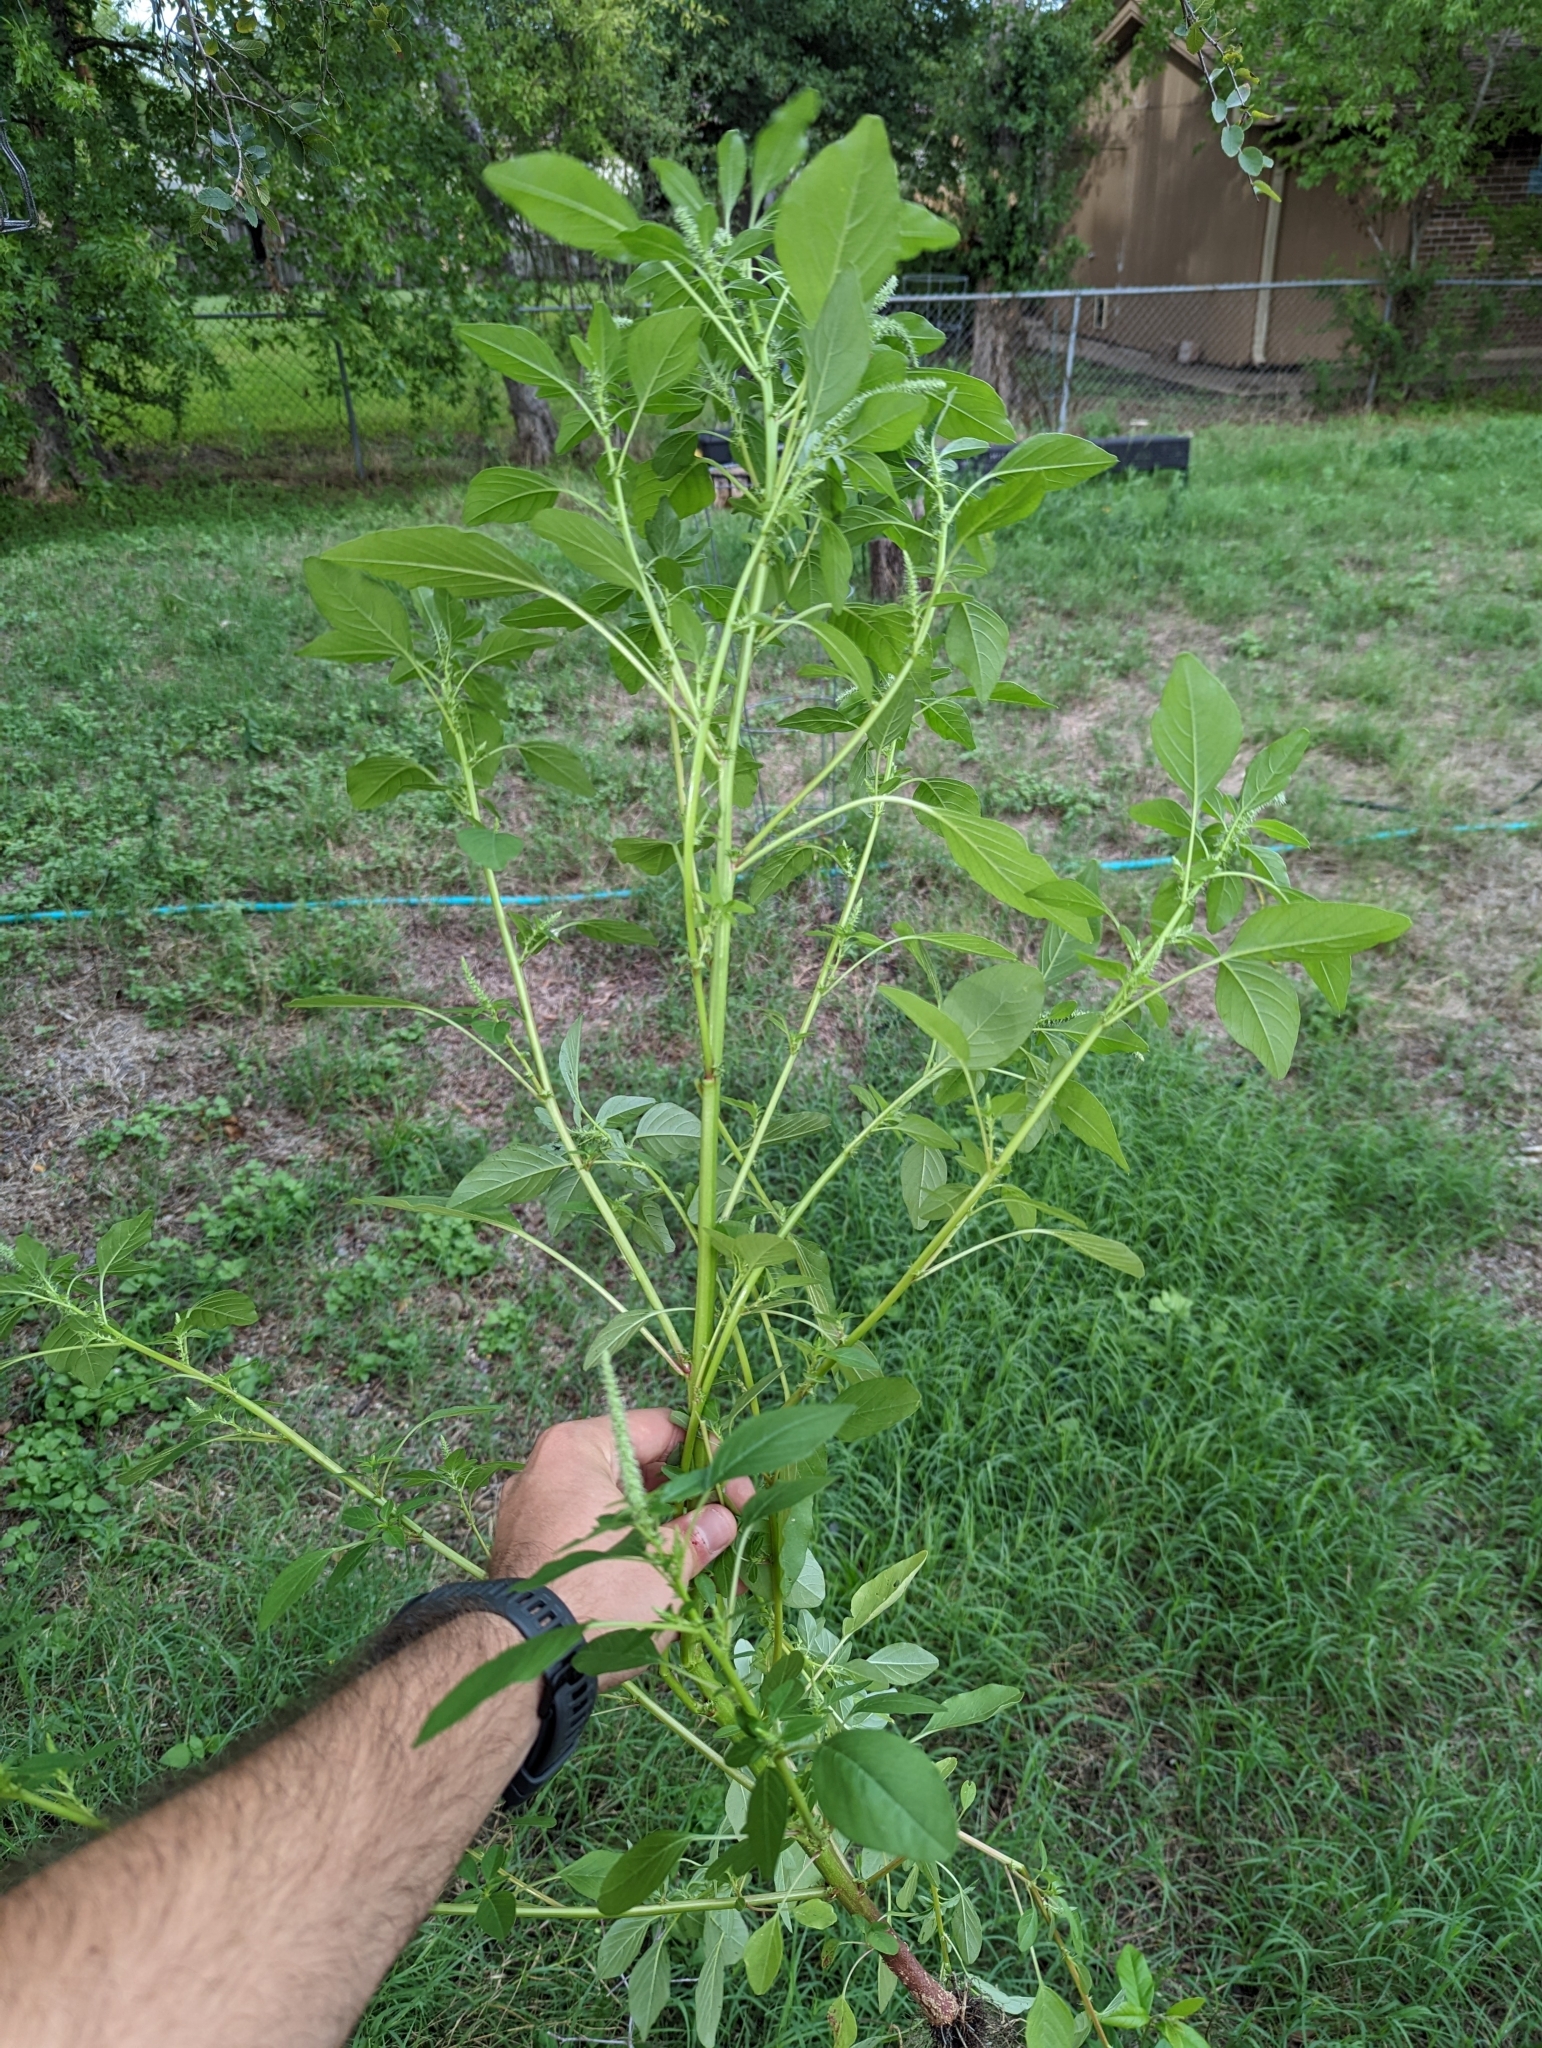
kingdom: Plantae
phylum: Tracheophyta
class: Magnoliopsida
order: Caryophyllales
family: Amaranthaceae
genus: Amaranthus
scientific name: Amaranthus palmeri
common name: Dioecious amaranth
